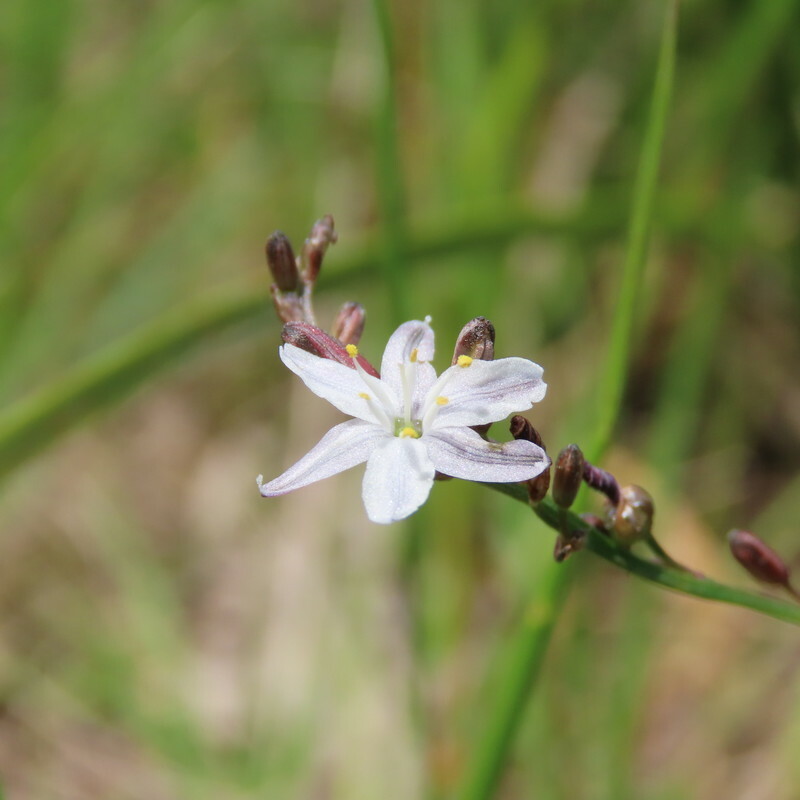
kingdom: Plantae
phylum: Tracheophyta
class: Liliopsida
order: Asparagales
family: Asphodelaceae
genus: Caesia
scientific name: Caesia parviflora
